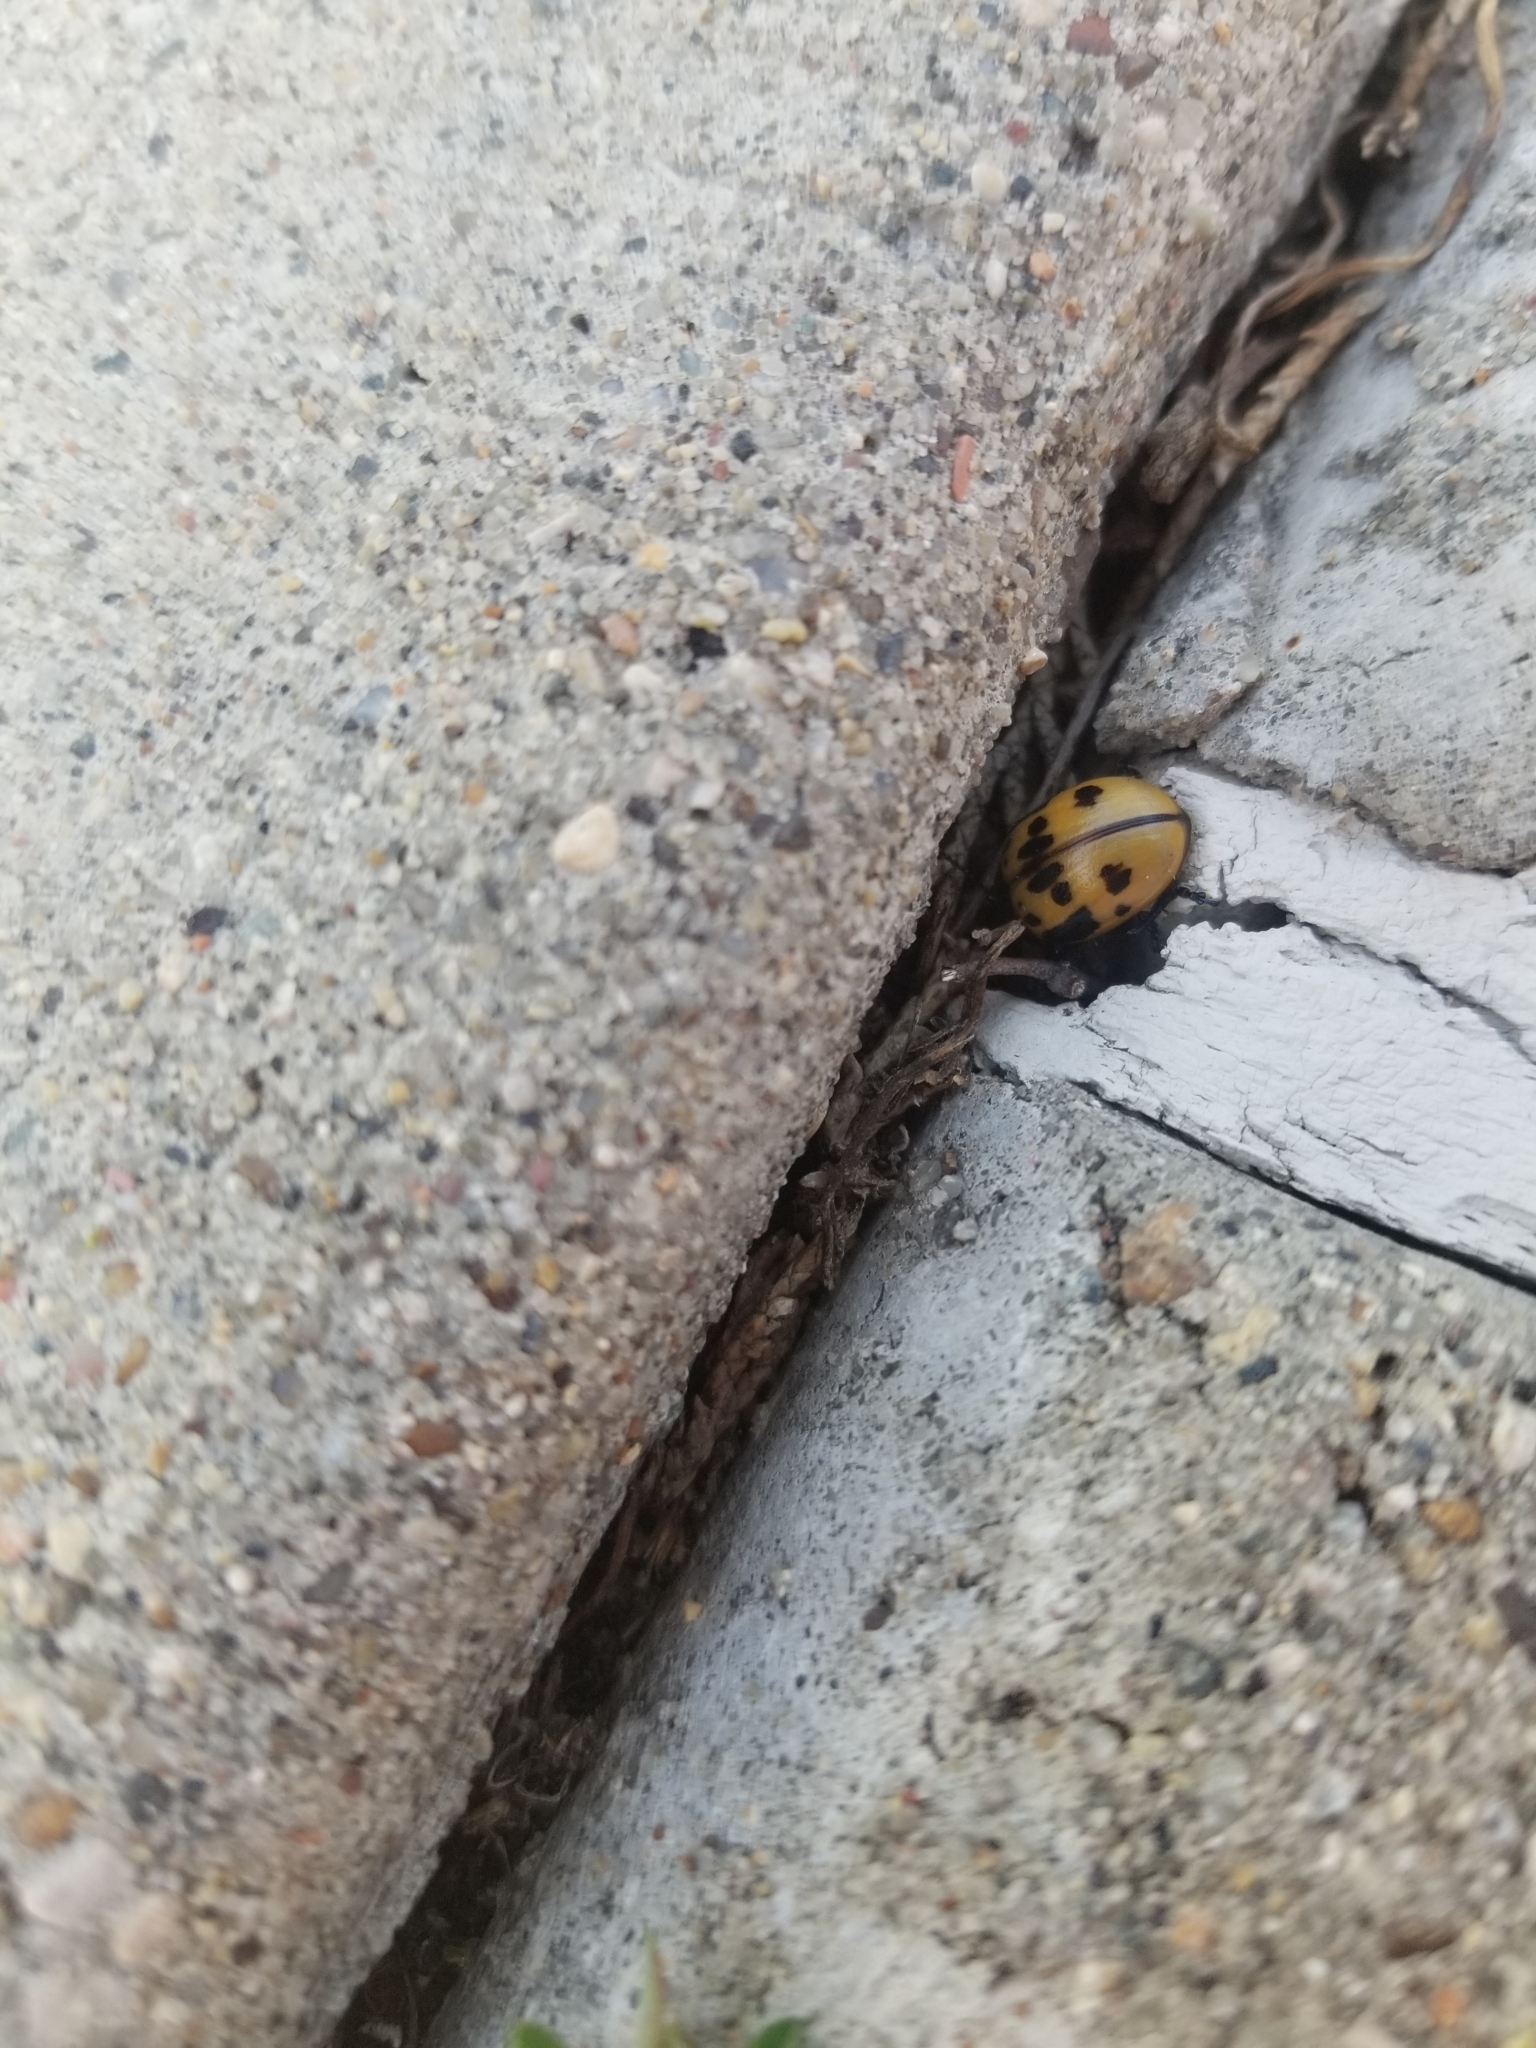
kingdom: Animalia
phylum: Arthropoda
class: Insecta
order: Coleoptera
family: Chrysomelidae
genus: Labidomera
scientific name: Labidomera clivicollis
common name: Swamp milkweed leaf beetle
